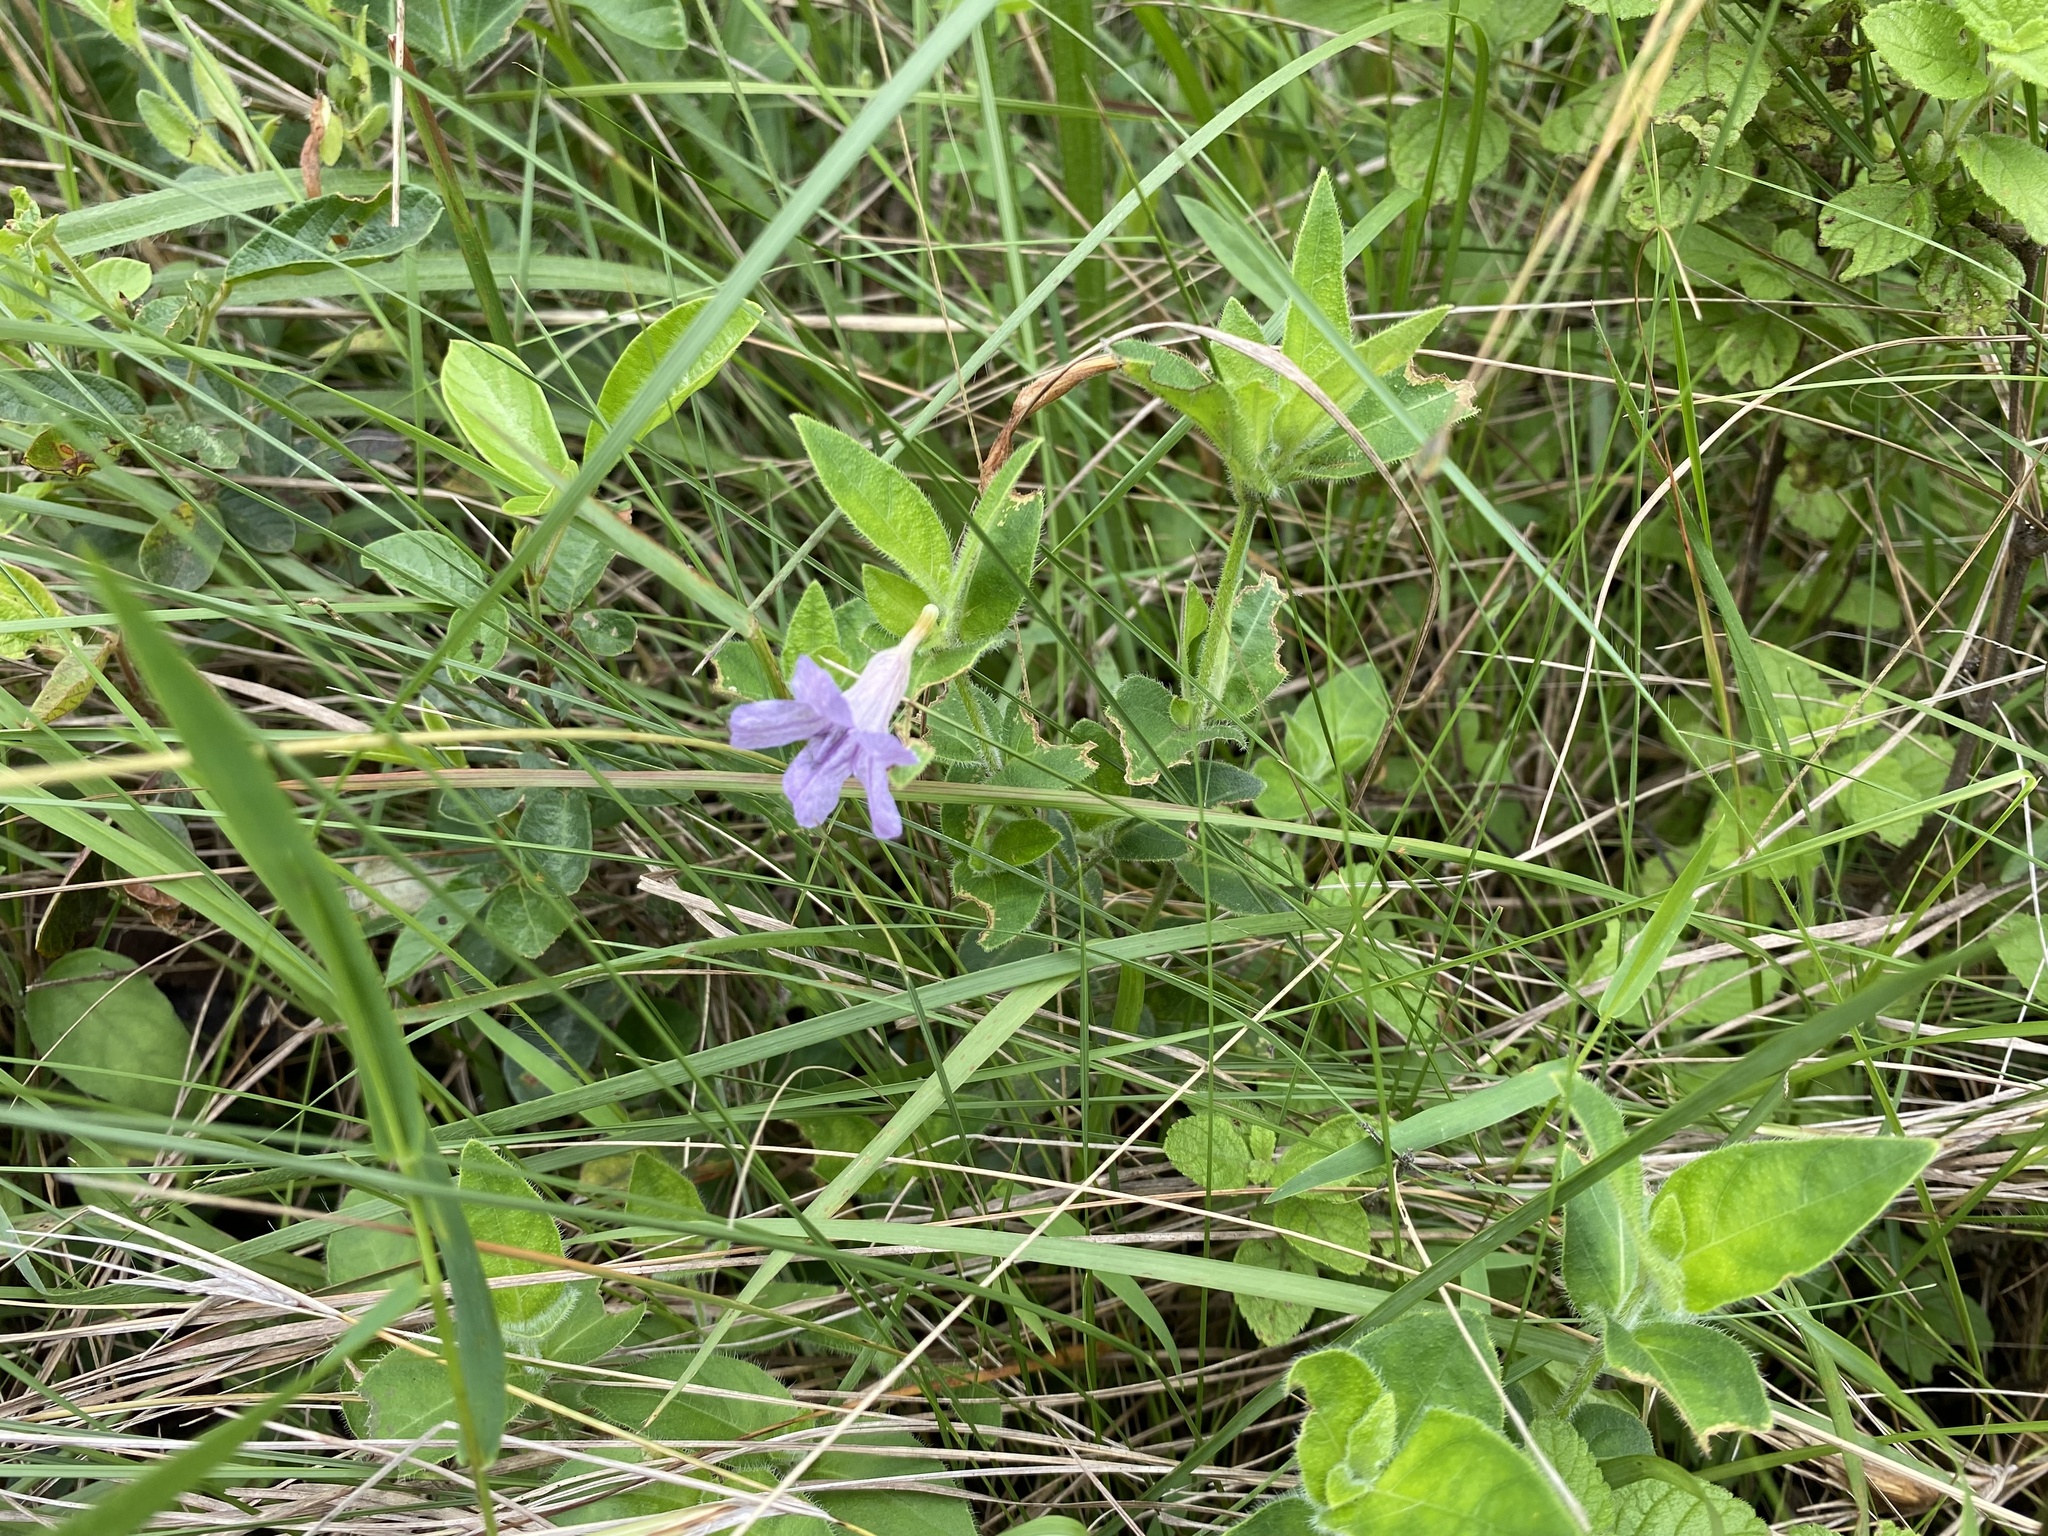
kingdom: Plantae
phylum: Tracheophyta
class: Magnoliopsida
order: Lamiales
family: Acanthaceae
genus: Ruellia
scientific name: Ruellia cordata
